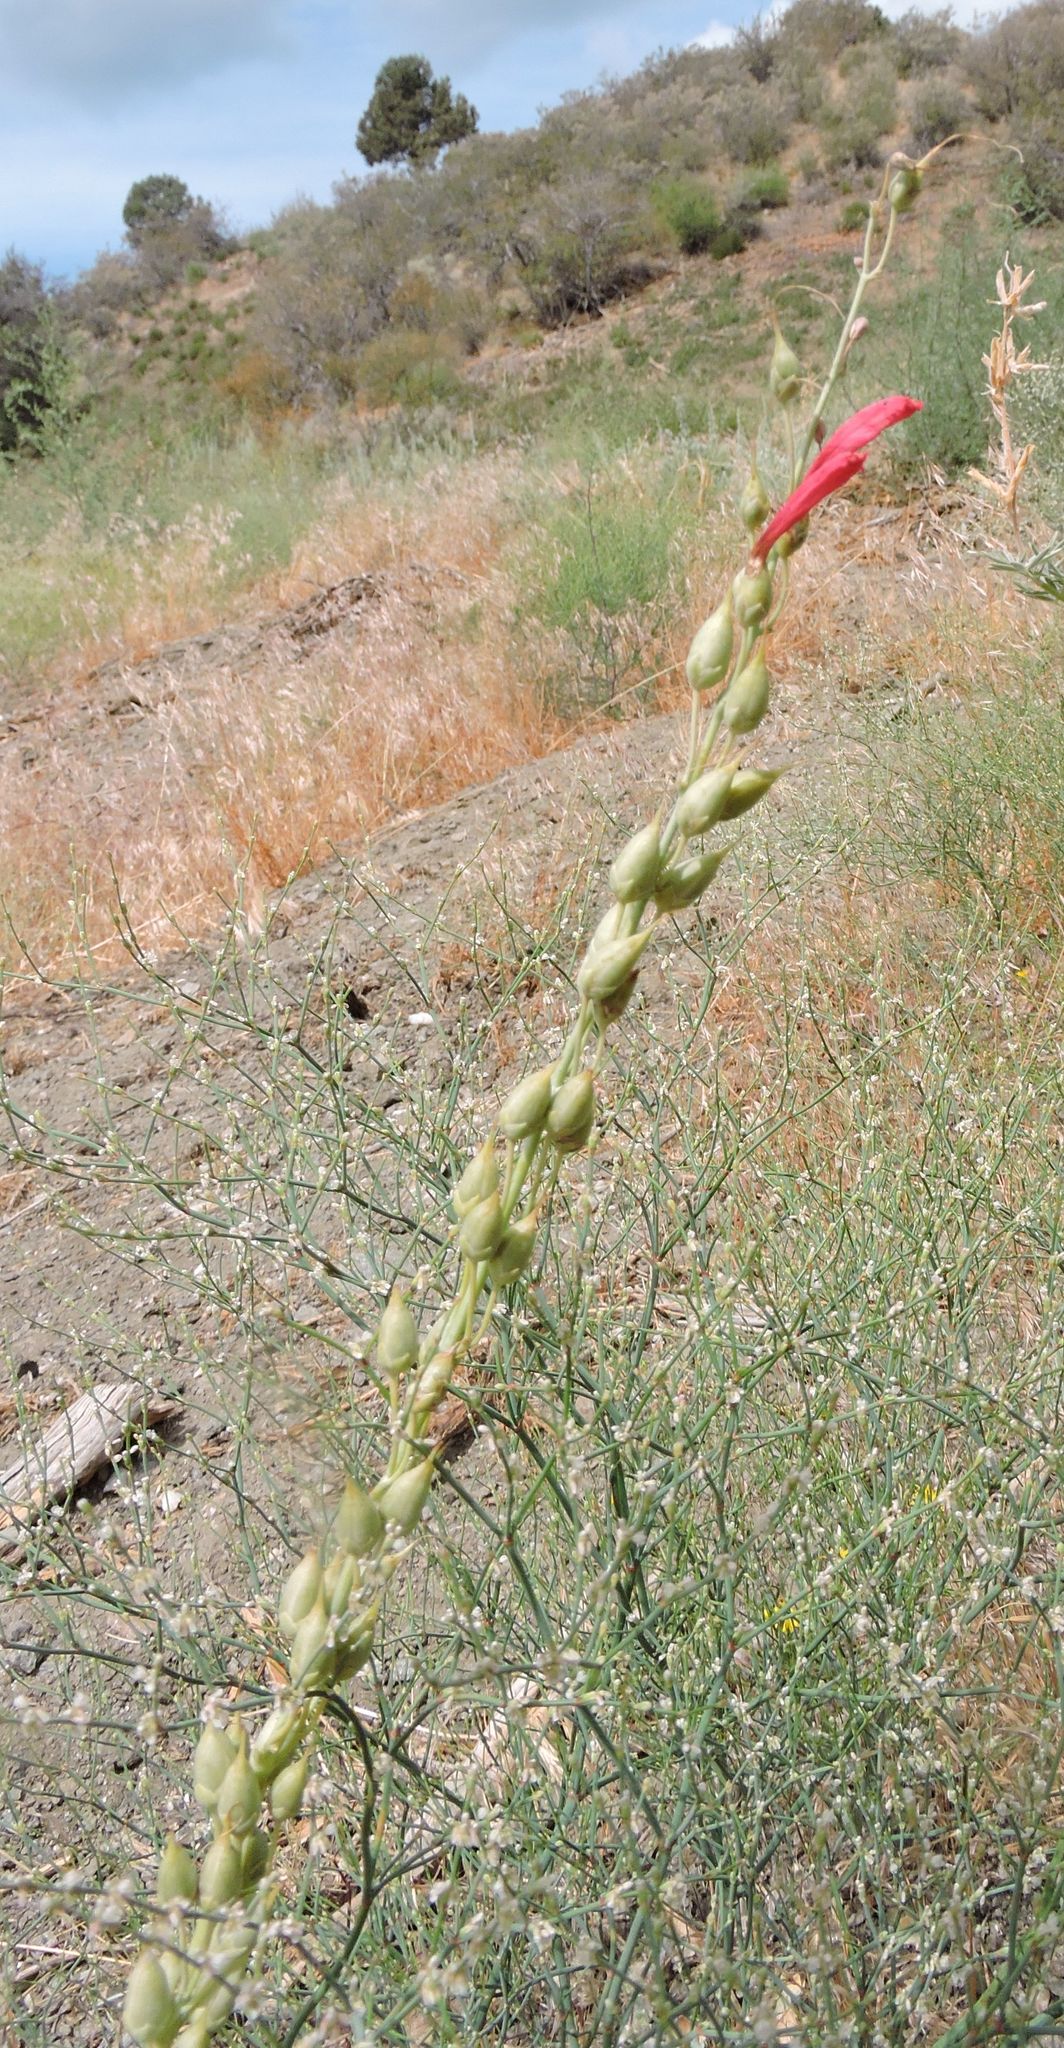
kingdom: Plantae
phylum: Tracheophyta
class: Magnoliopsida
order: Lamiales
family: Plantaginaceae
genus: Penstemon
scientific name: Penstemon centranthifolius
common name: Scarlet bugler
